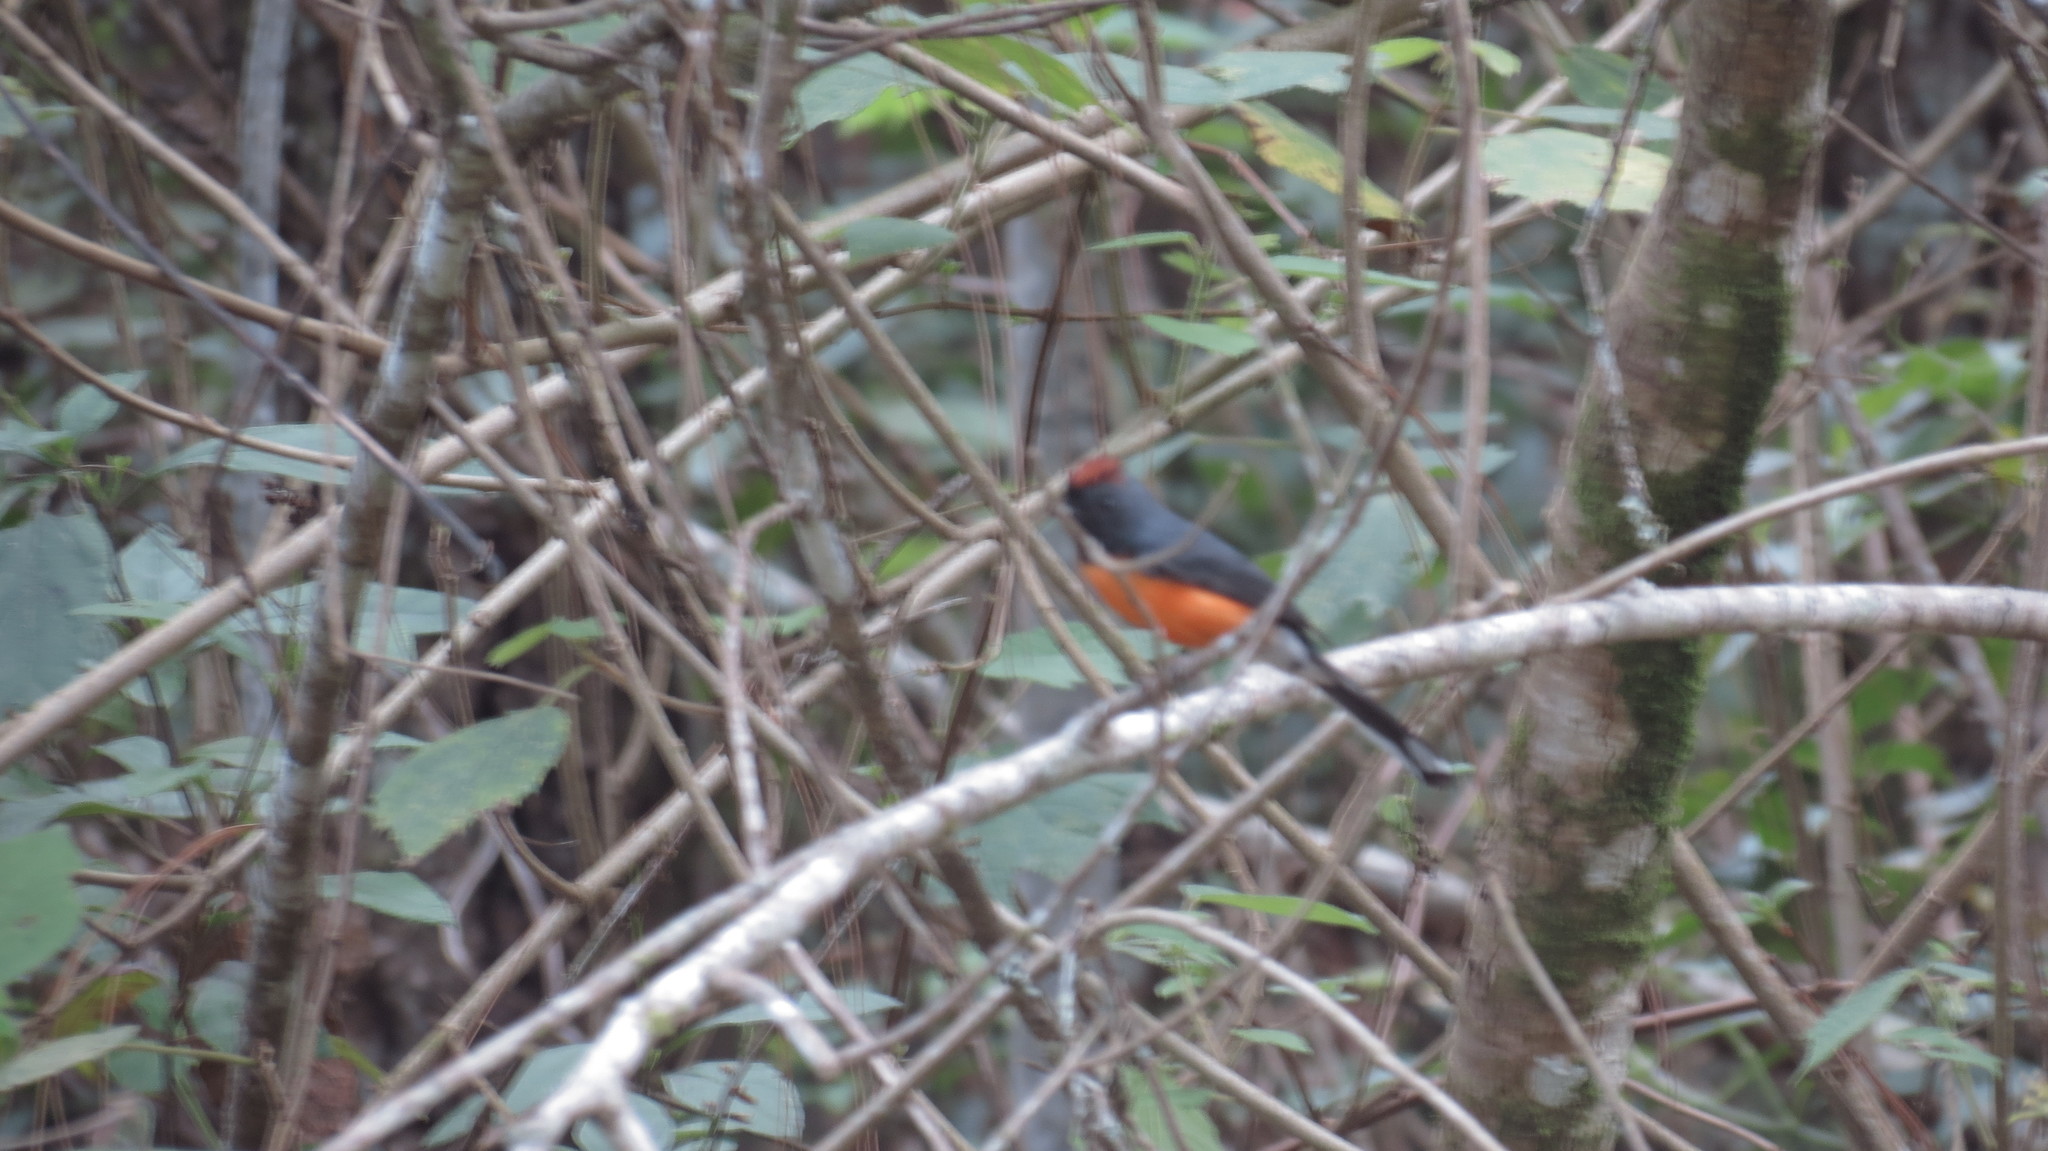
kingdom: Animalia
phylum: Chordata
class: Aves
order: Passeriformes
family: Parulidae
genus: Myioborus
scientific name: Myioborus miniatus
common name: Slate-throated redstart
